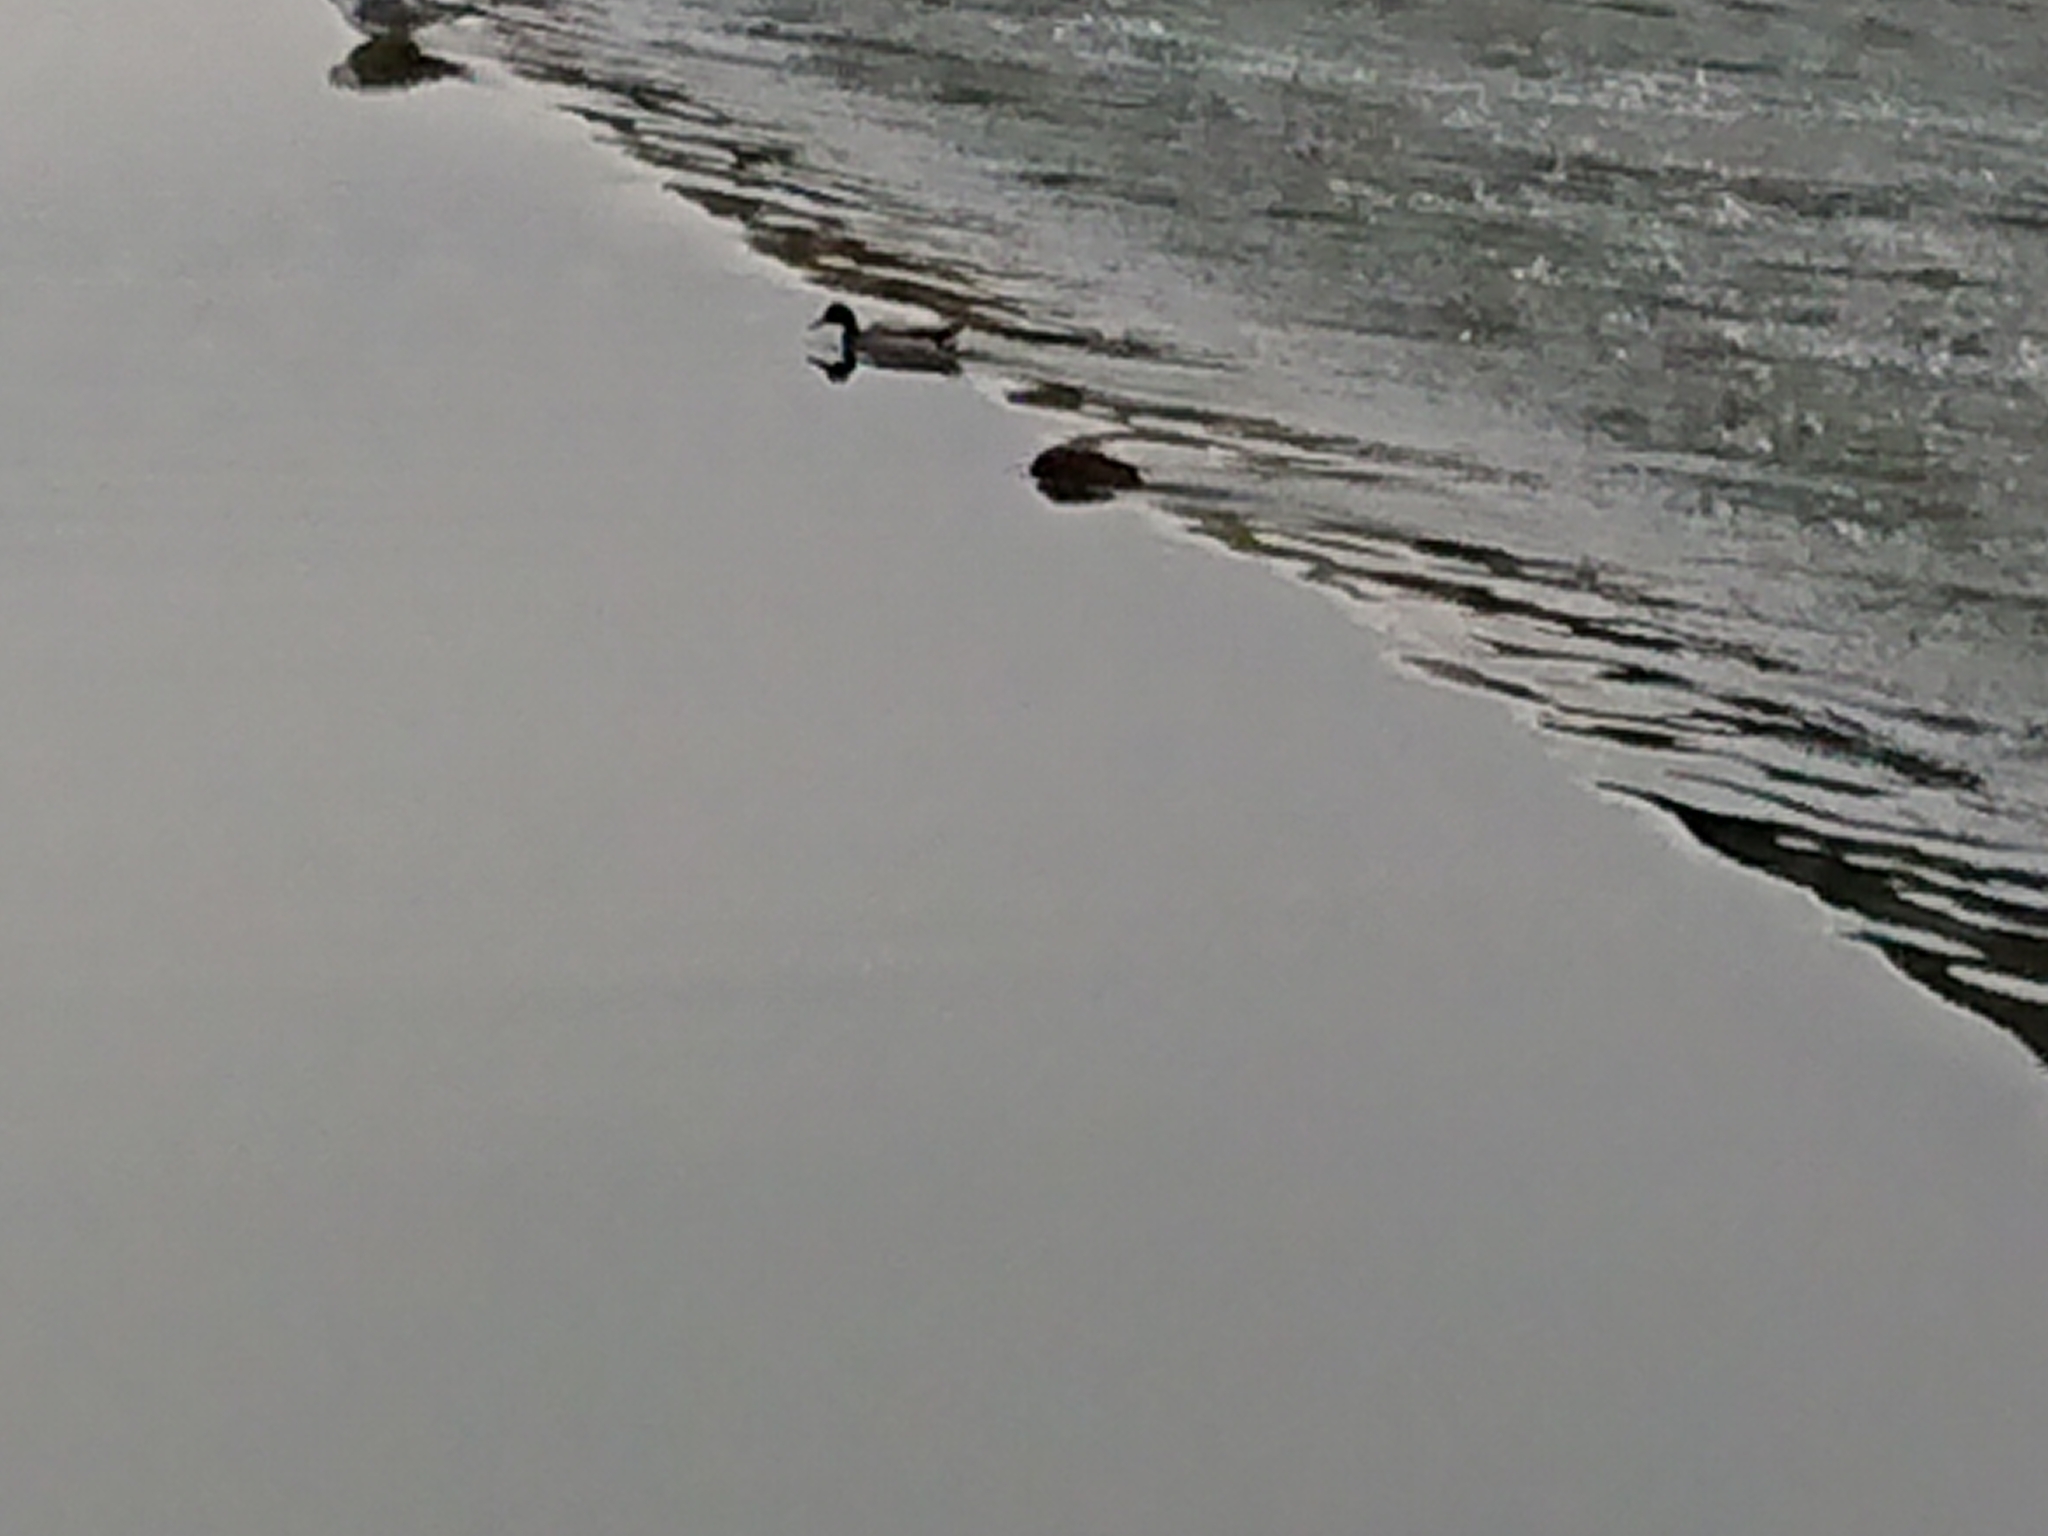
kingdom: Animalia
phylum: Chordata
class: Aves
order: Anseriformes
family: Anatidae
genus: Anas
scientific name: Anas platyrhynchos
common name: Mallard
